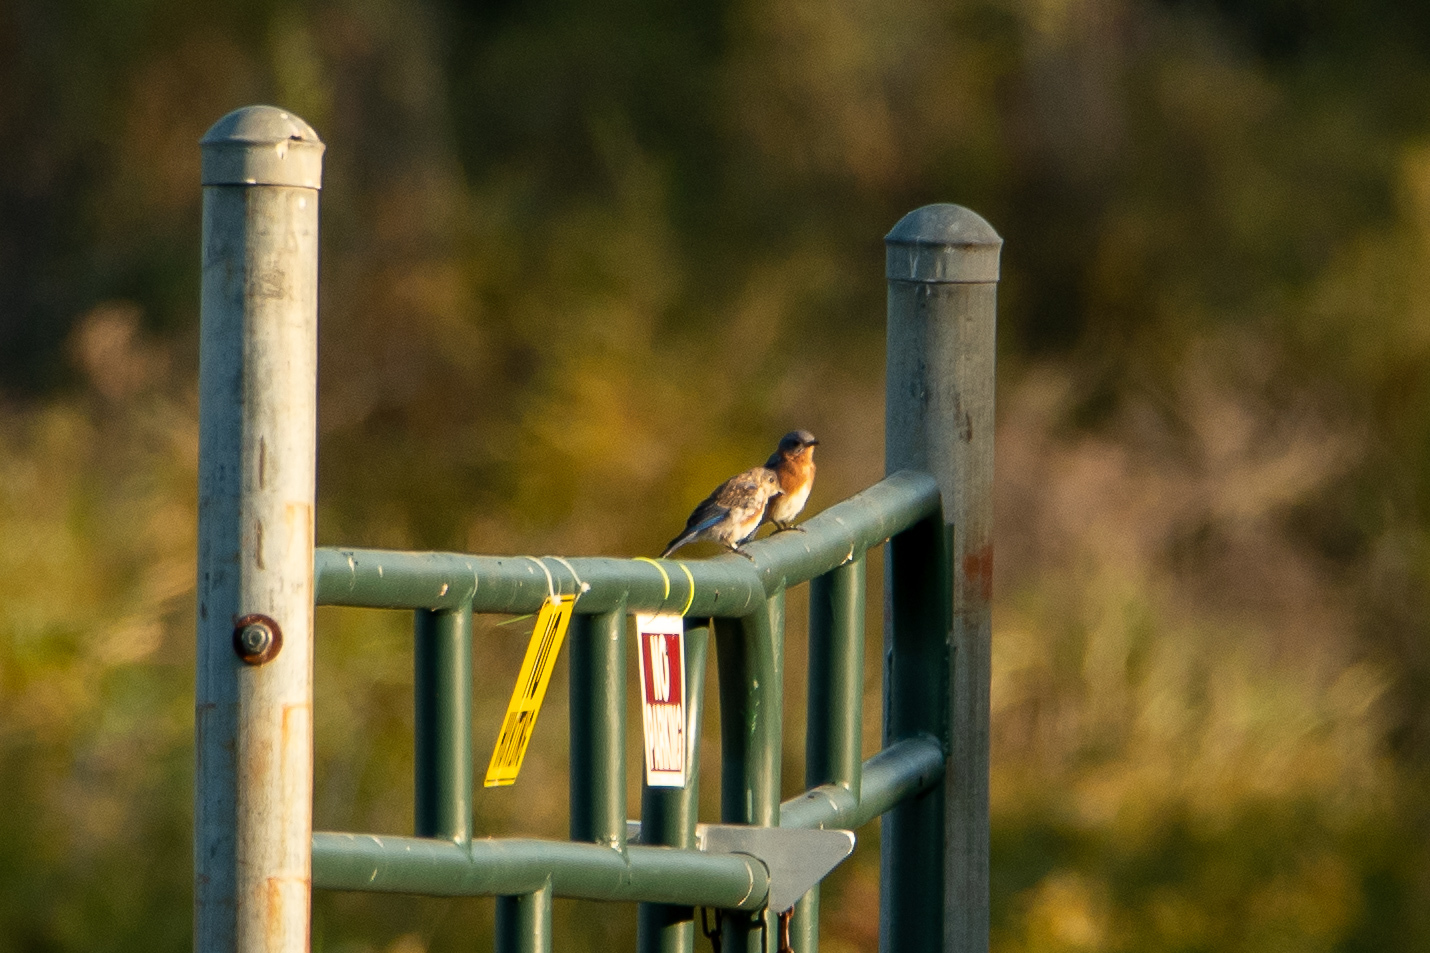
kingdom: Animalia
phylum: Chordata
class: Aves
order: Passeriformes
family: Turdidae
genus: Sialia
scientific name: Sialia sialis
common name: Eastern bluebird
